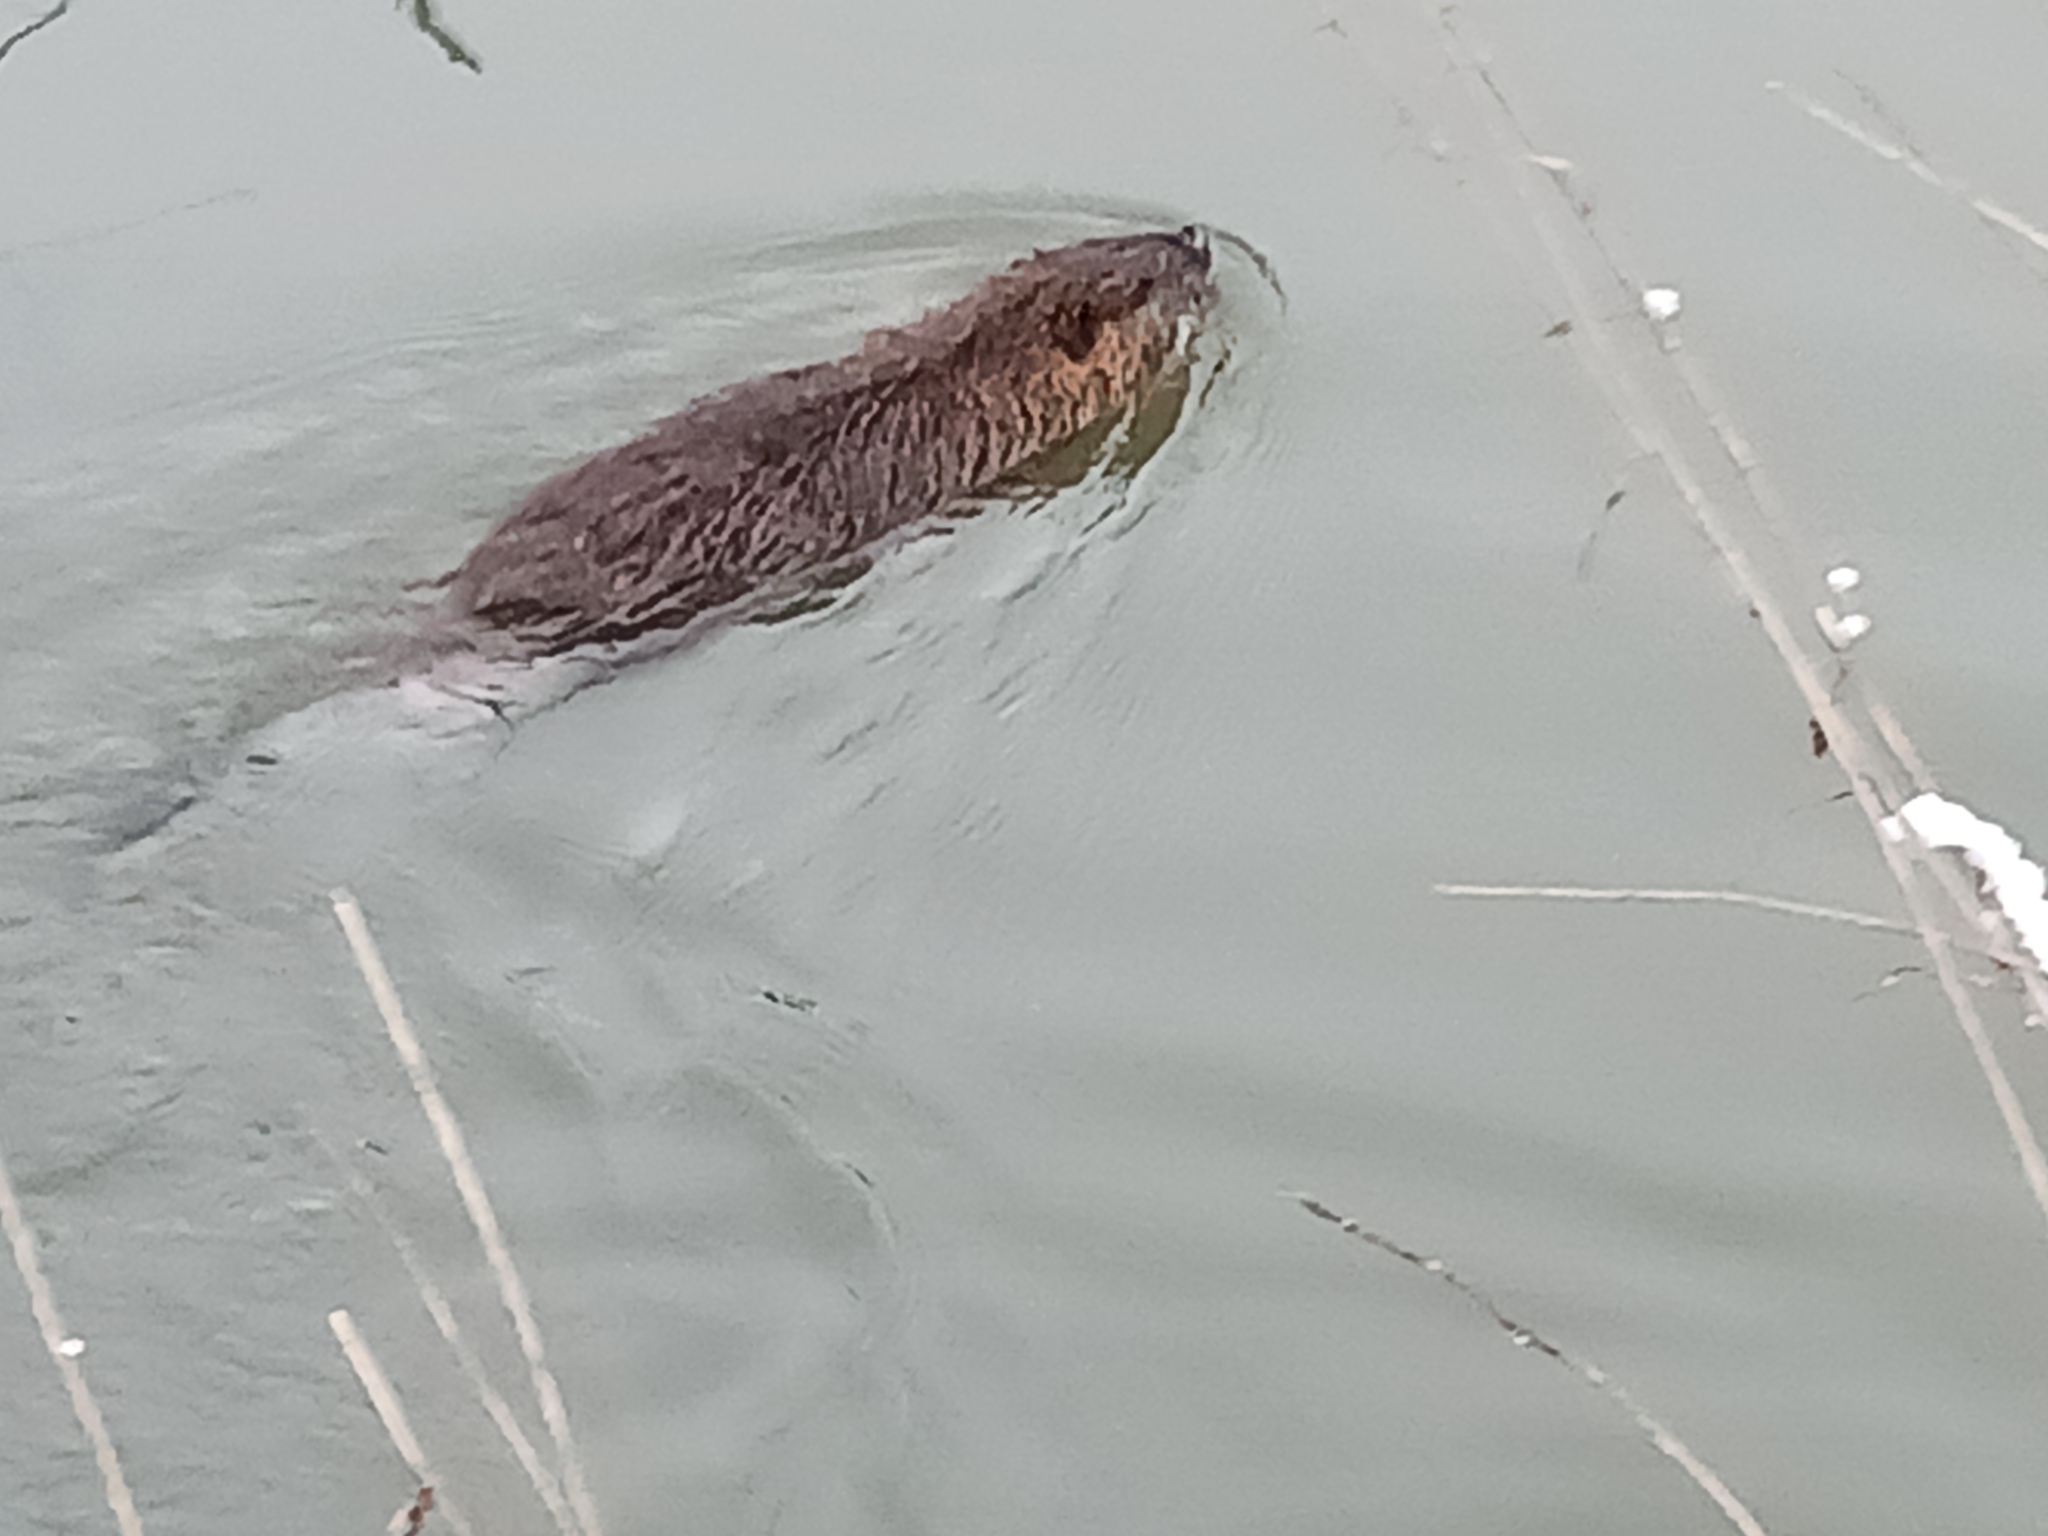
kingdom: Animalia
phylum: Chordata
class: Mammalia
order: Rodentia
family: Myocastoridae
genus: Myocastor
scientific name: Myocastor coypus
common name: Coypu
